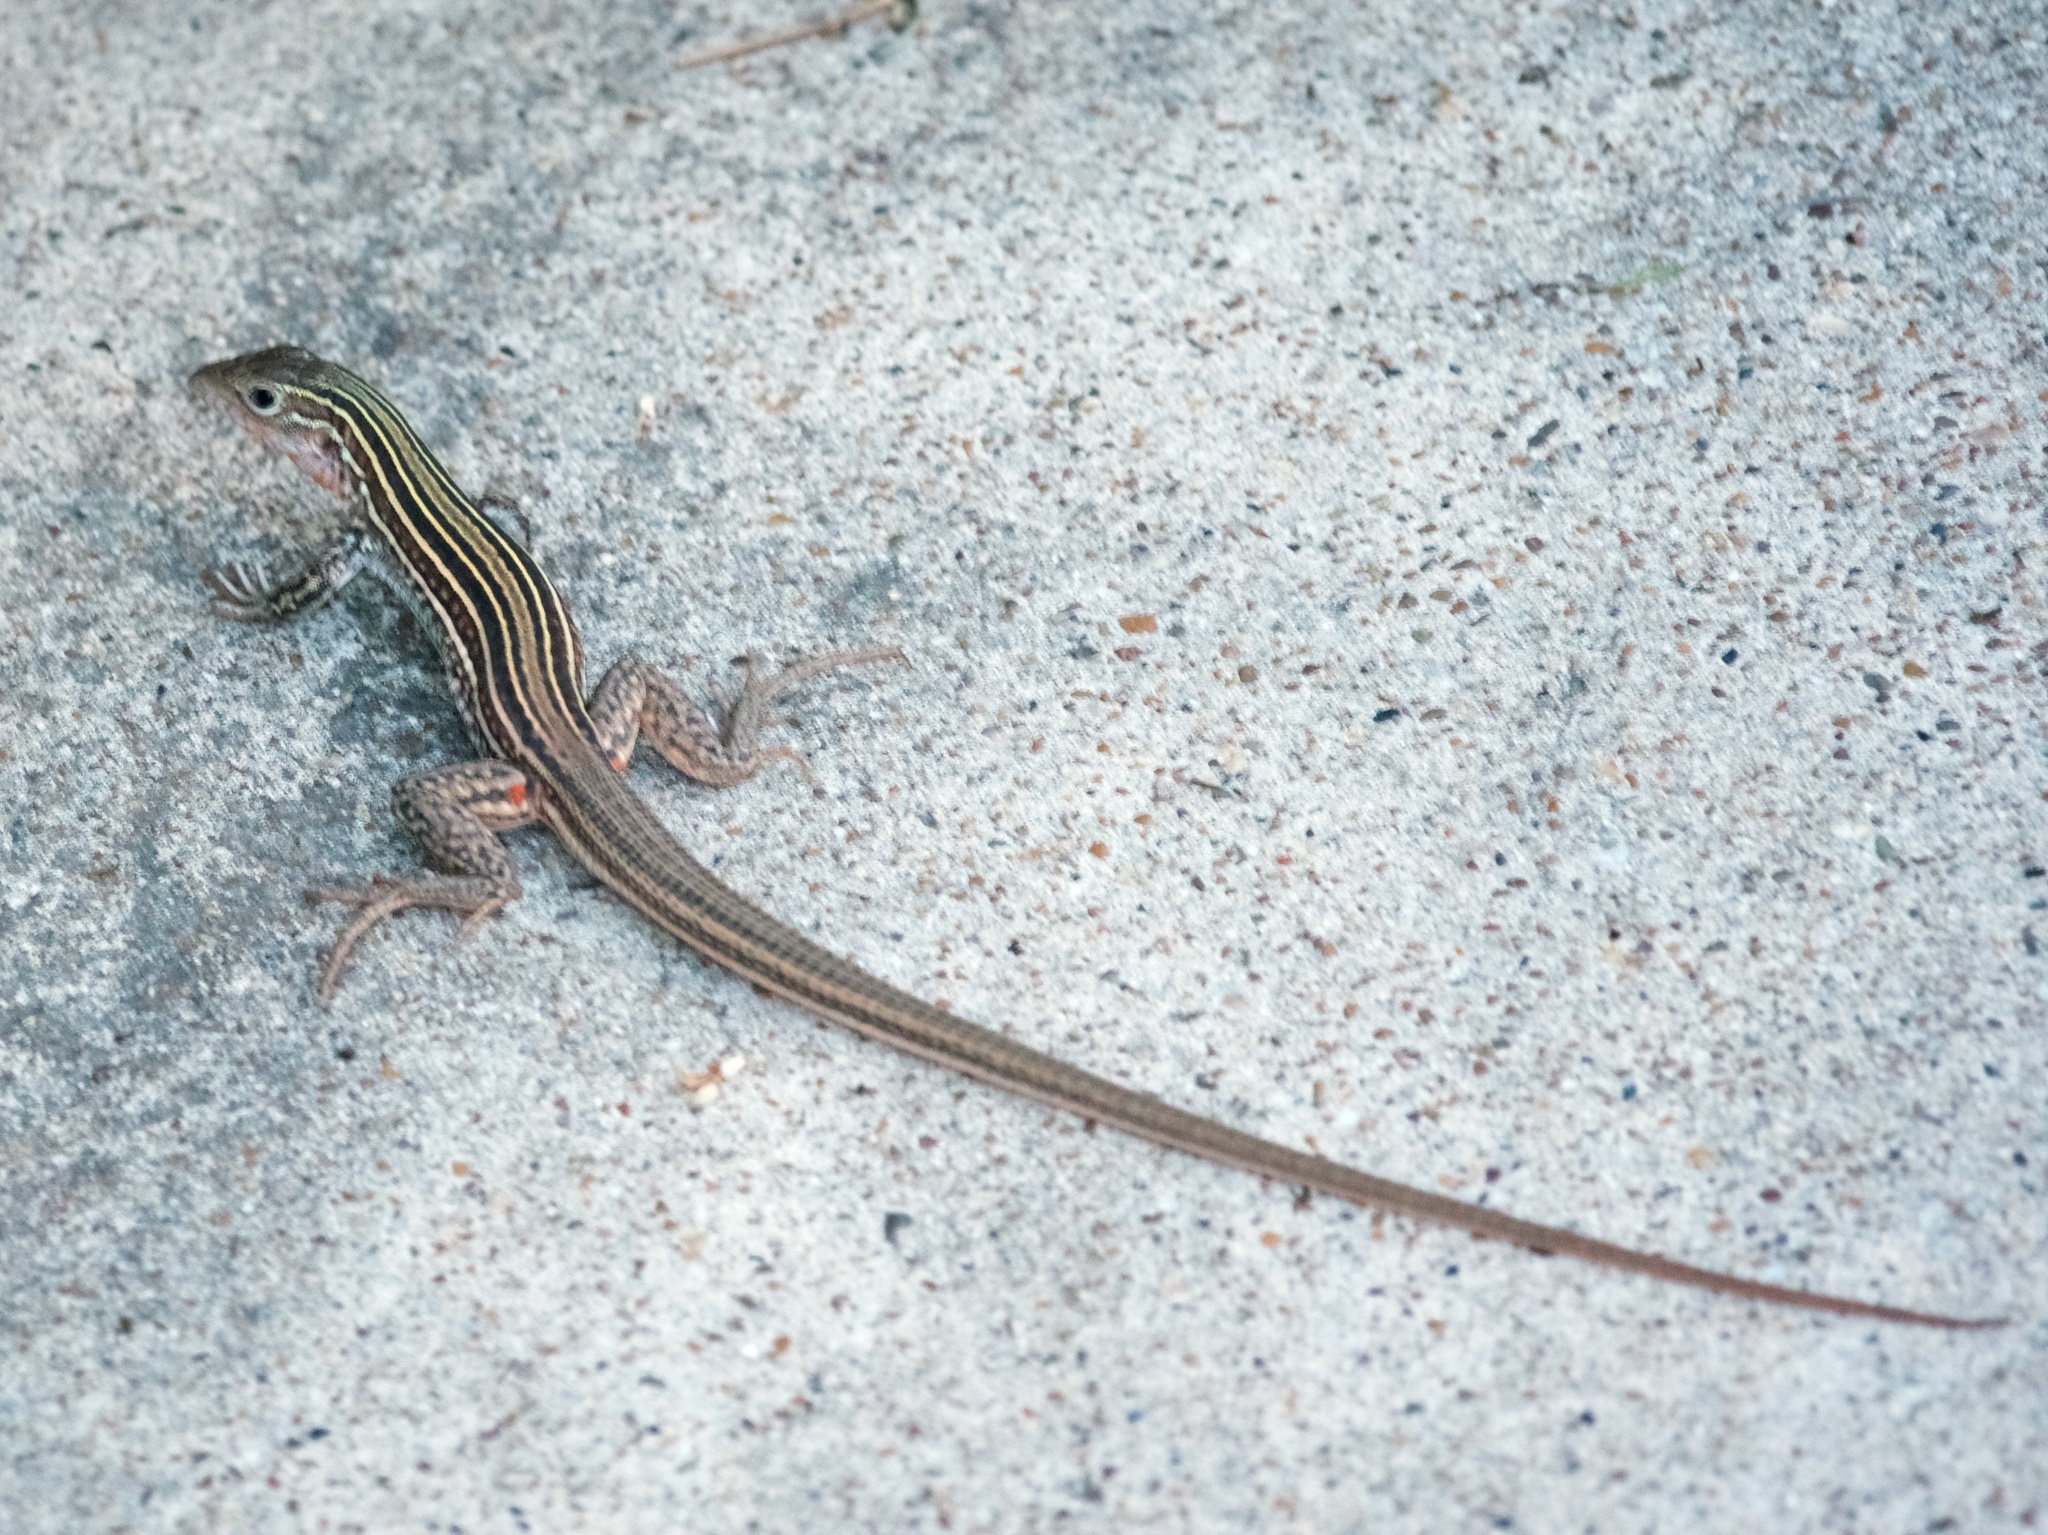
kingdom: Animalia
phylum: Chordata
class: Squamata
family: Teiidae
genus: Aspidoscelis
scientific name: Aspidoscelis gularis
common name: Eastern spotted whiptail
